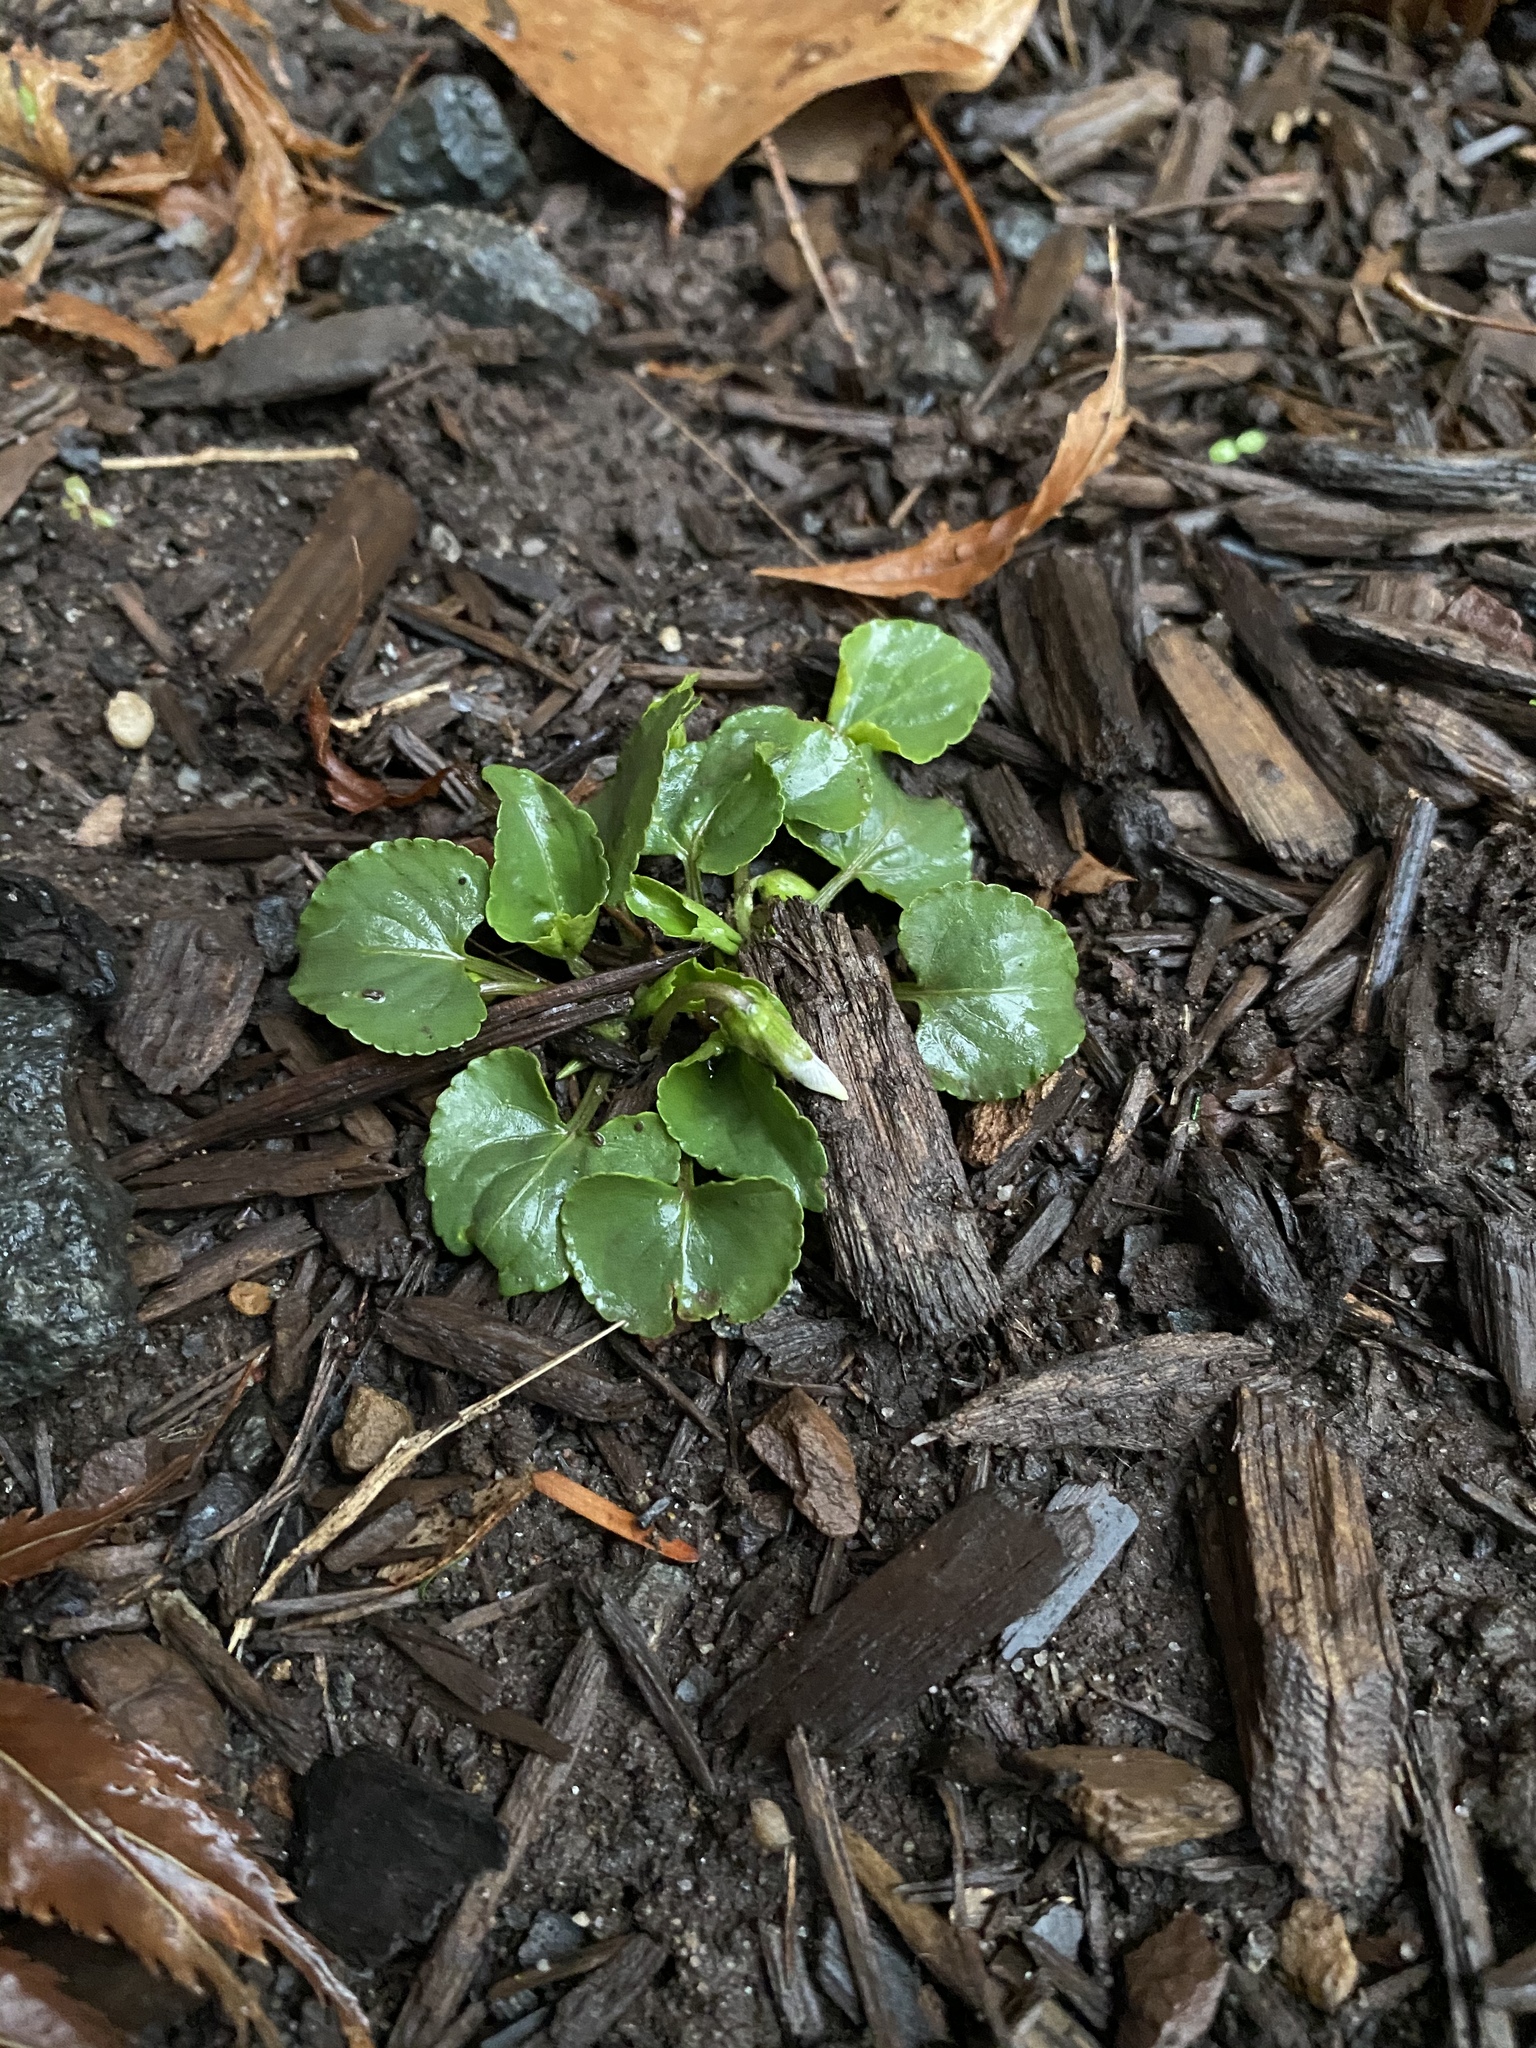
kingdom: Plantae
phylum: Tracheophyta
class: Magnoliopsida
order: Malpighiales
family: Violaceae
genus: Viola
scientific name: Viola sororia
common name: Dooryard violet
